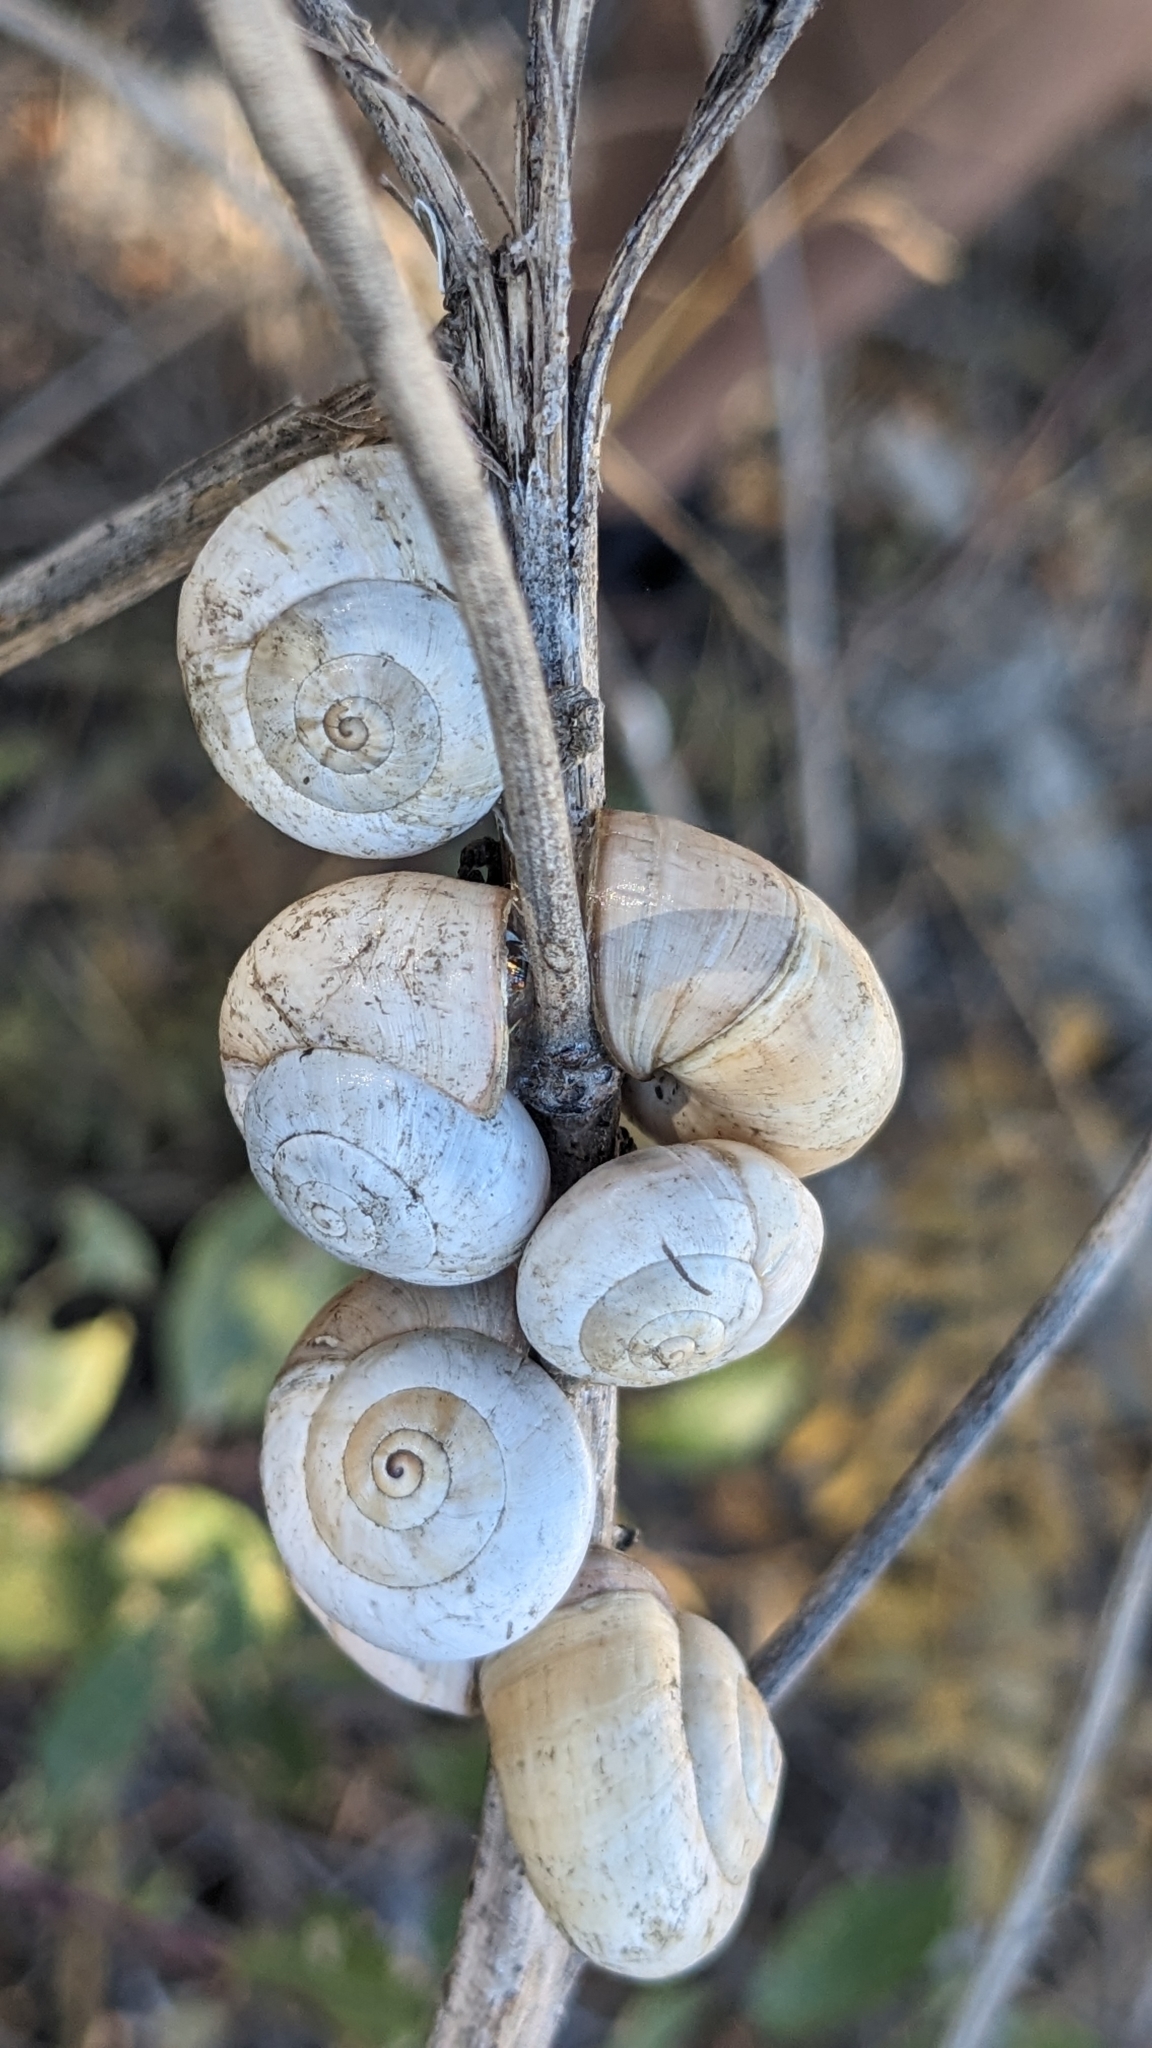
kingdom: Animalia
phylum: Mollusca
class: Gastropoda
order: Stylommatophora
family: Helicidae
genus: Theba
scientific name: Theba pisana
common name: White snail
